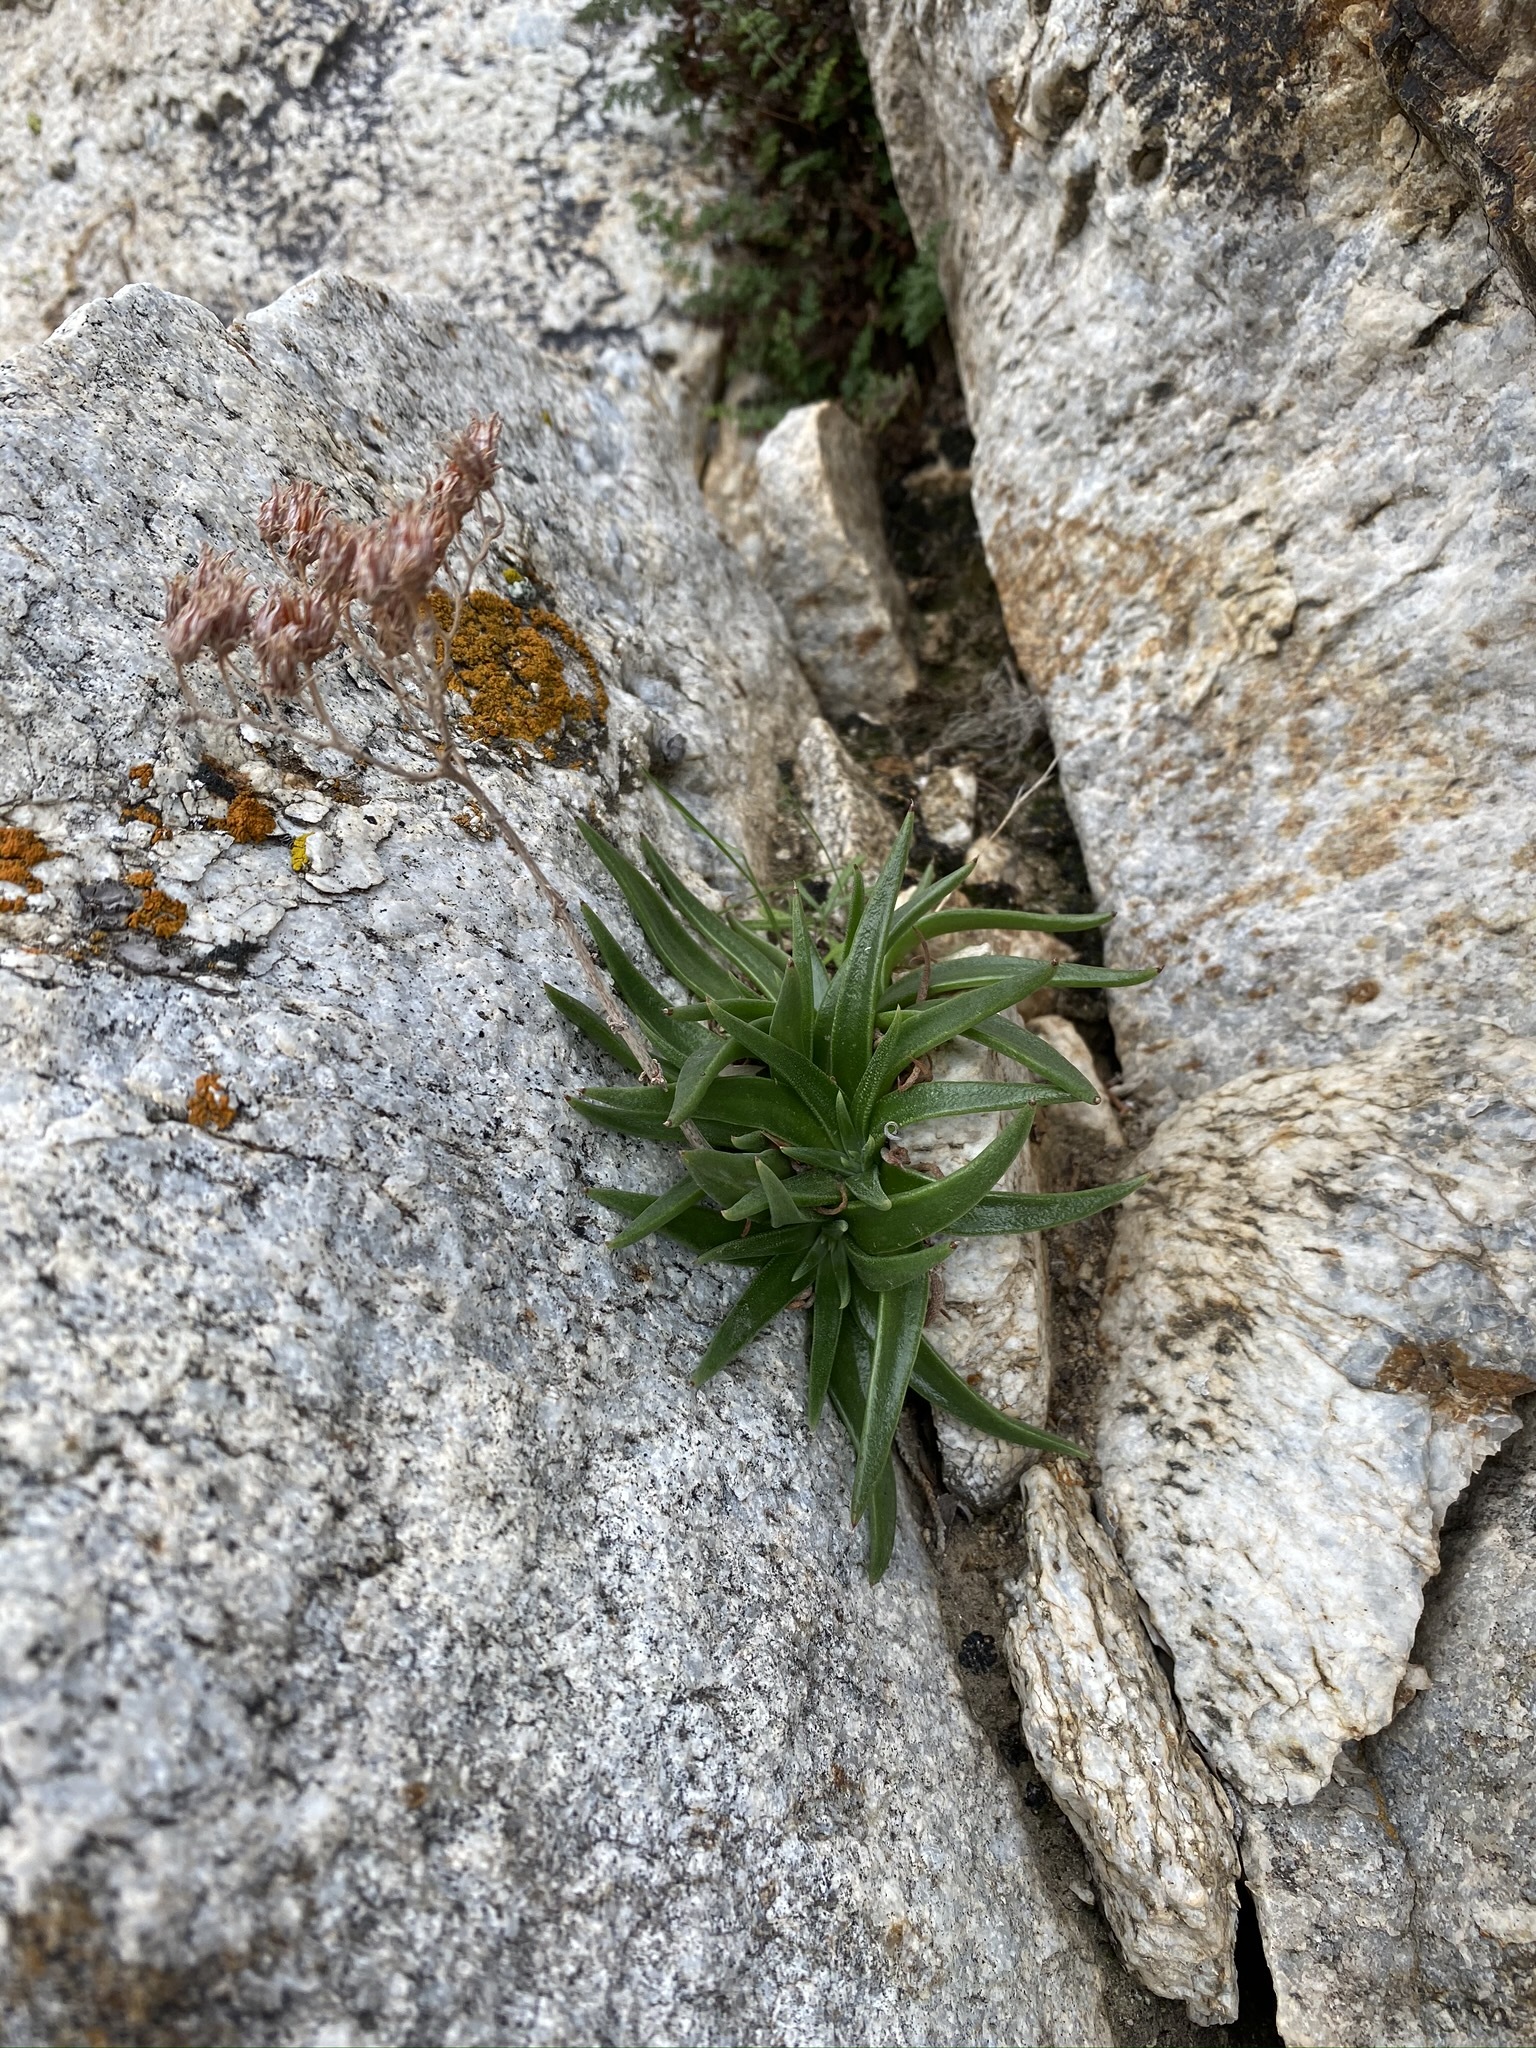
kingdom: Plantae
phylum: Tracheophyta
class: Magnoliopsida
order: Saxifragales
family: Crassulaceae
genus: Dudleya
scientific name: Dudleya saxosa
